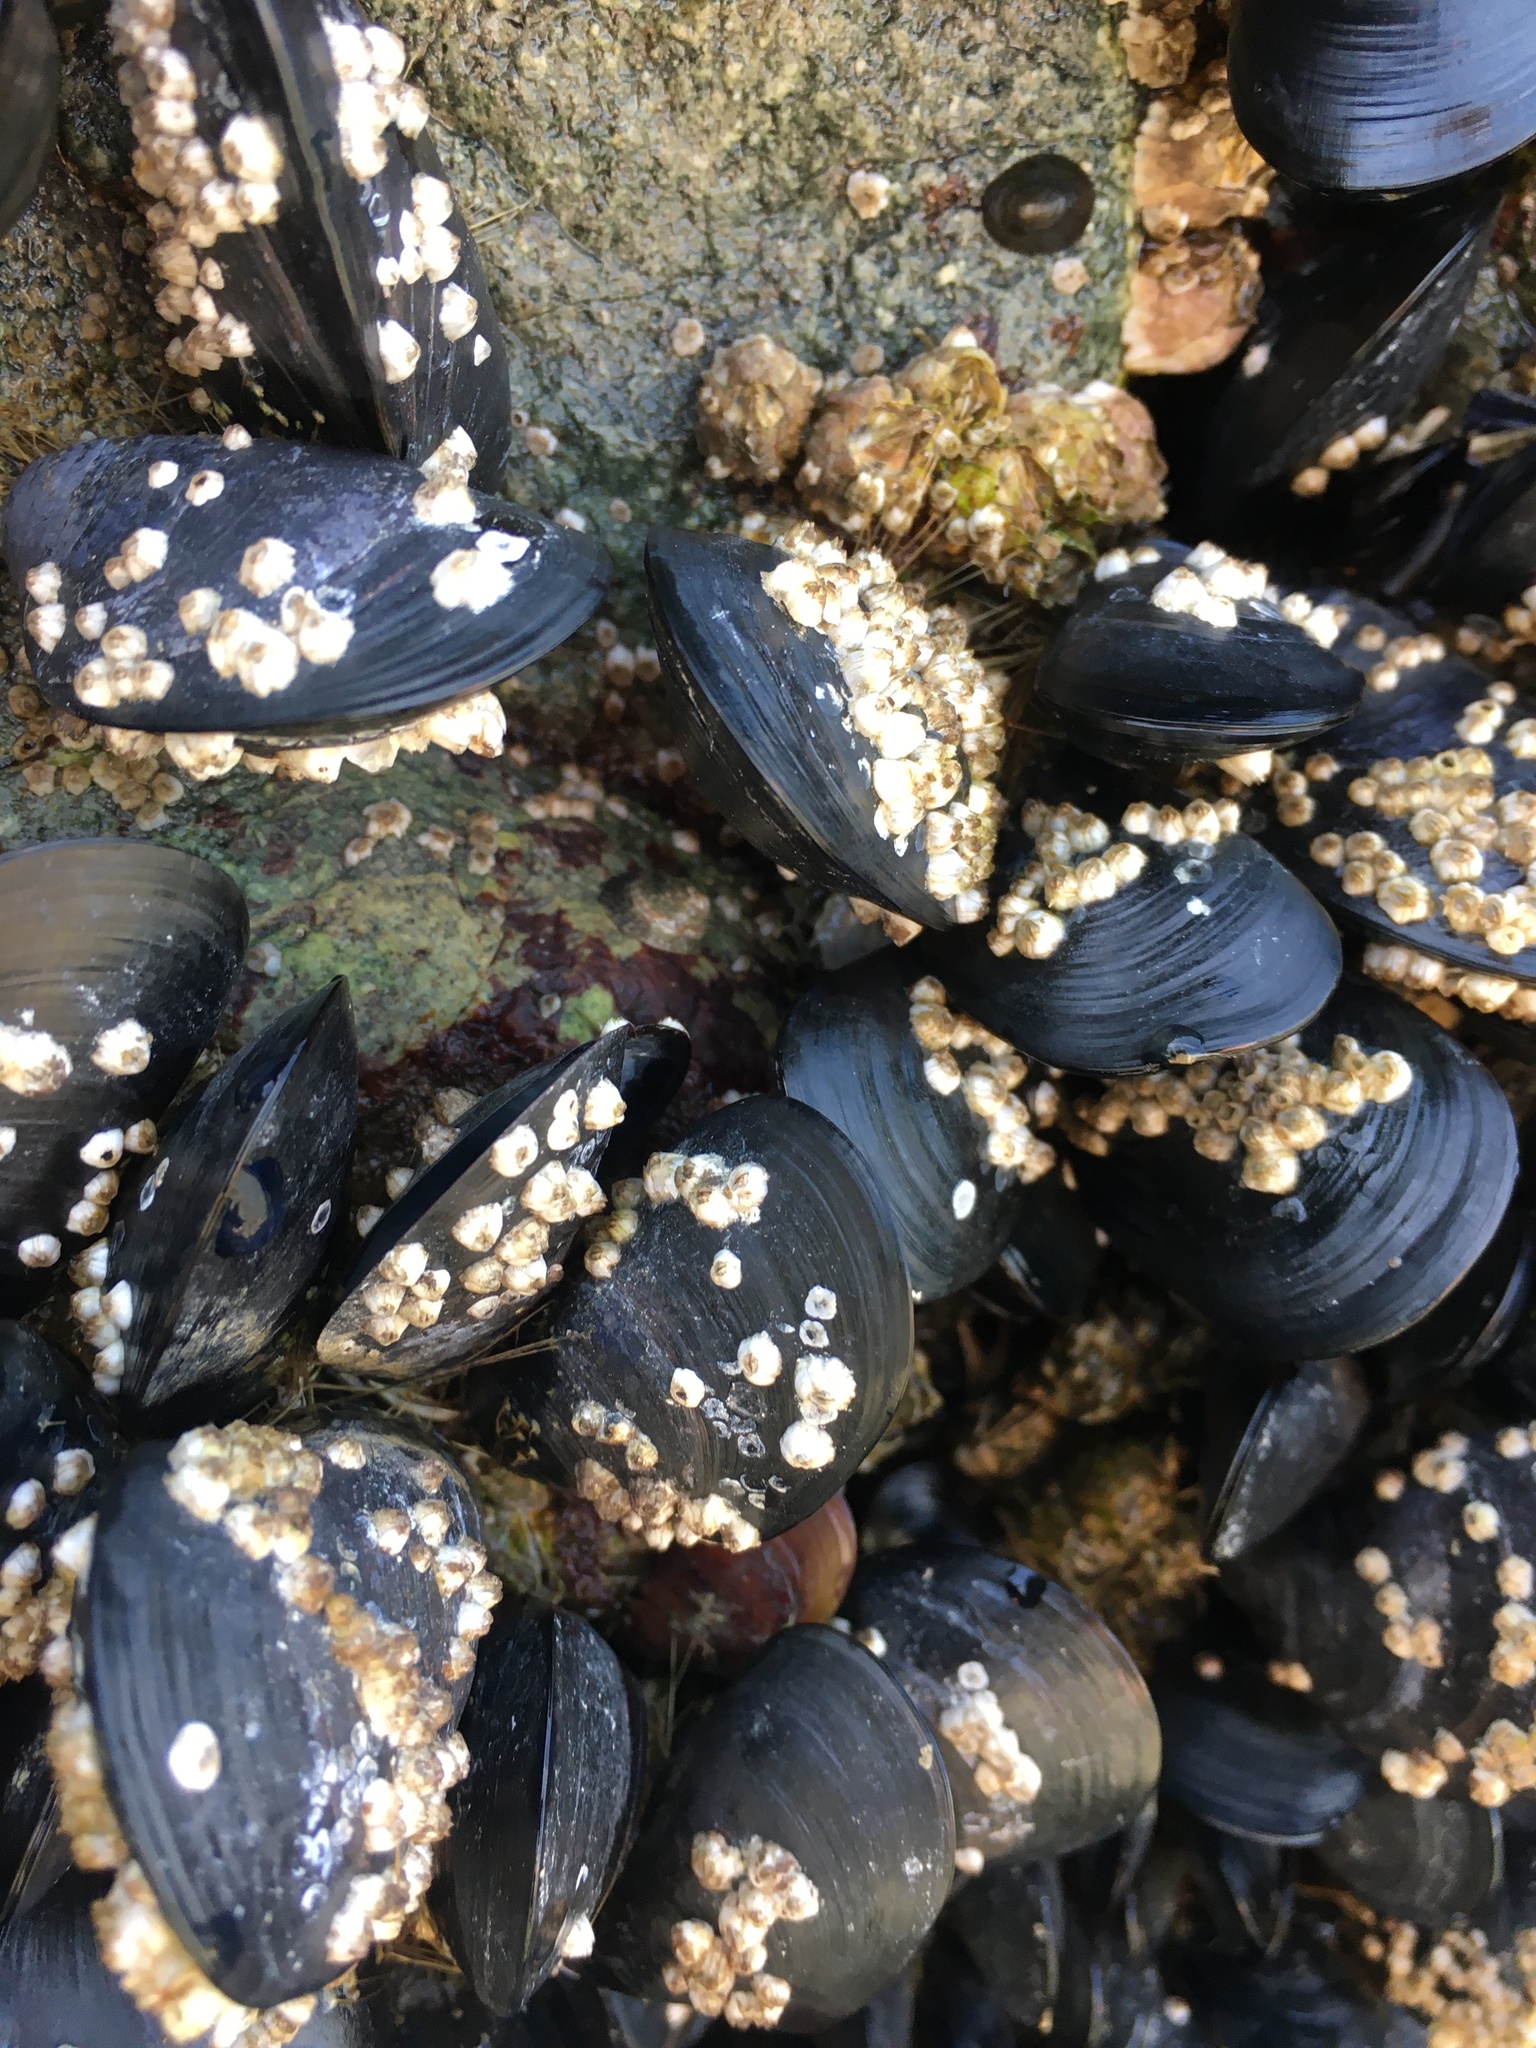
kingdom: Animalia
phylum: Mollusca
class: Bivalvia
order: Mytilida
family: Mytilidae
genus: Mytilus
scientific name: Mytilus
